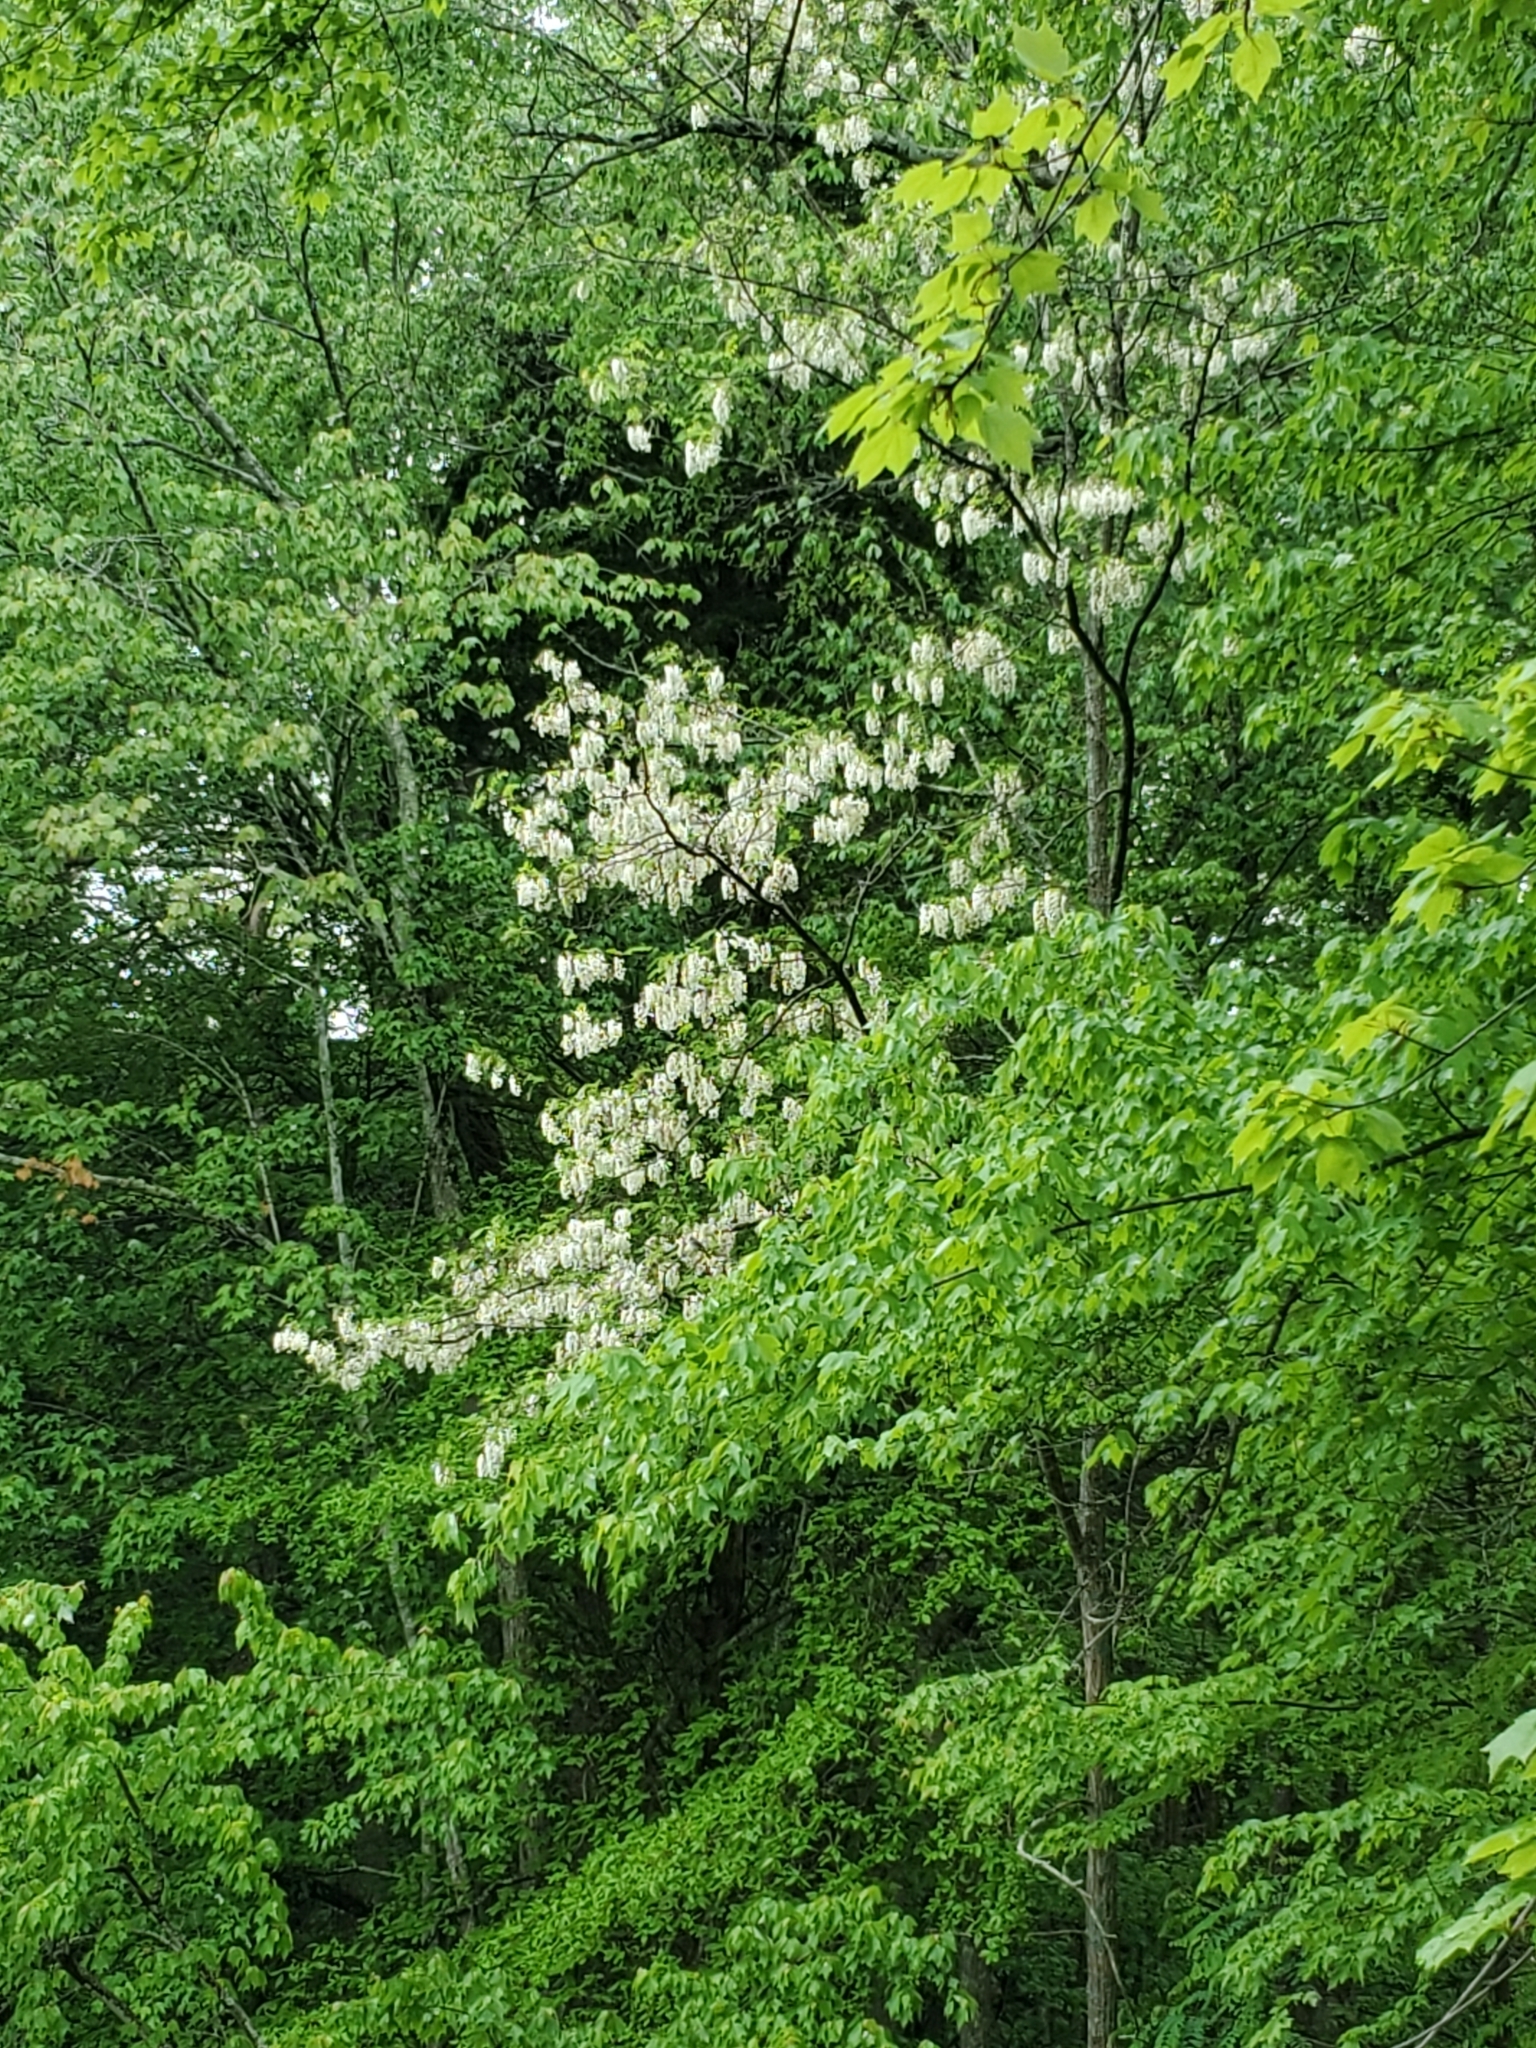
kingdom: Plantae
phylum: Tracheophyta
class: Magnoliopsida
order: Fabales
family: Fabaceae
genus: Robinia
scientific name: Robinia pseudoacacia
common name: Black locust
